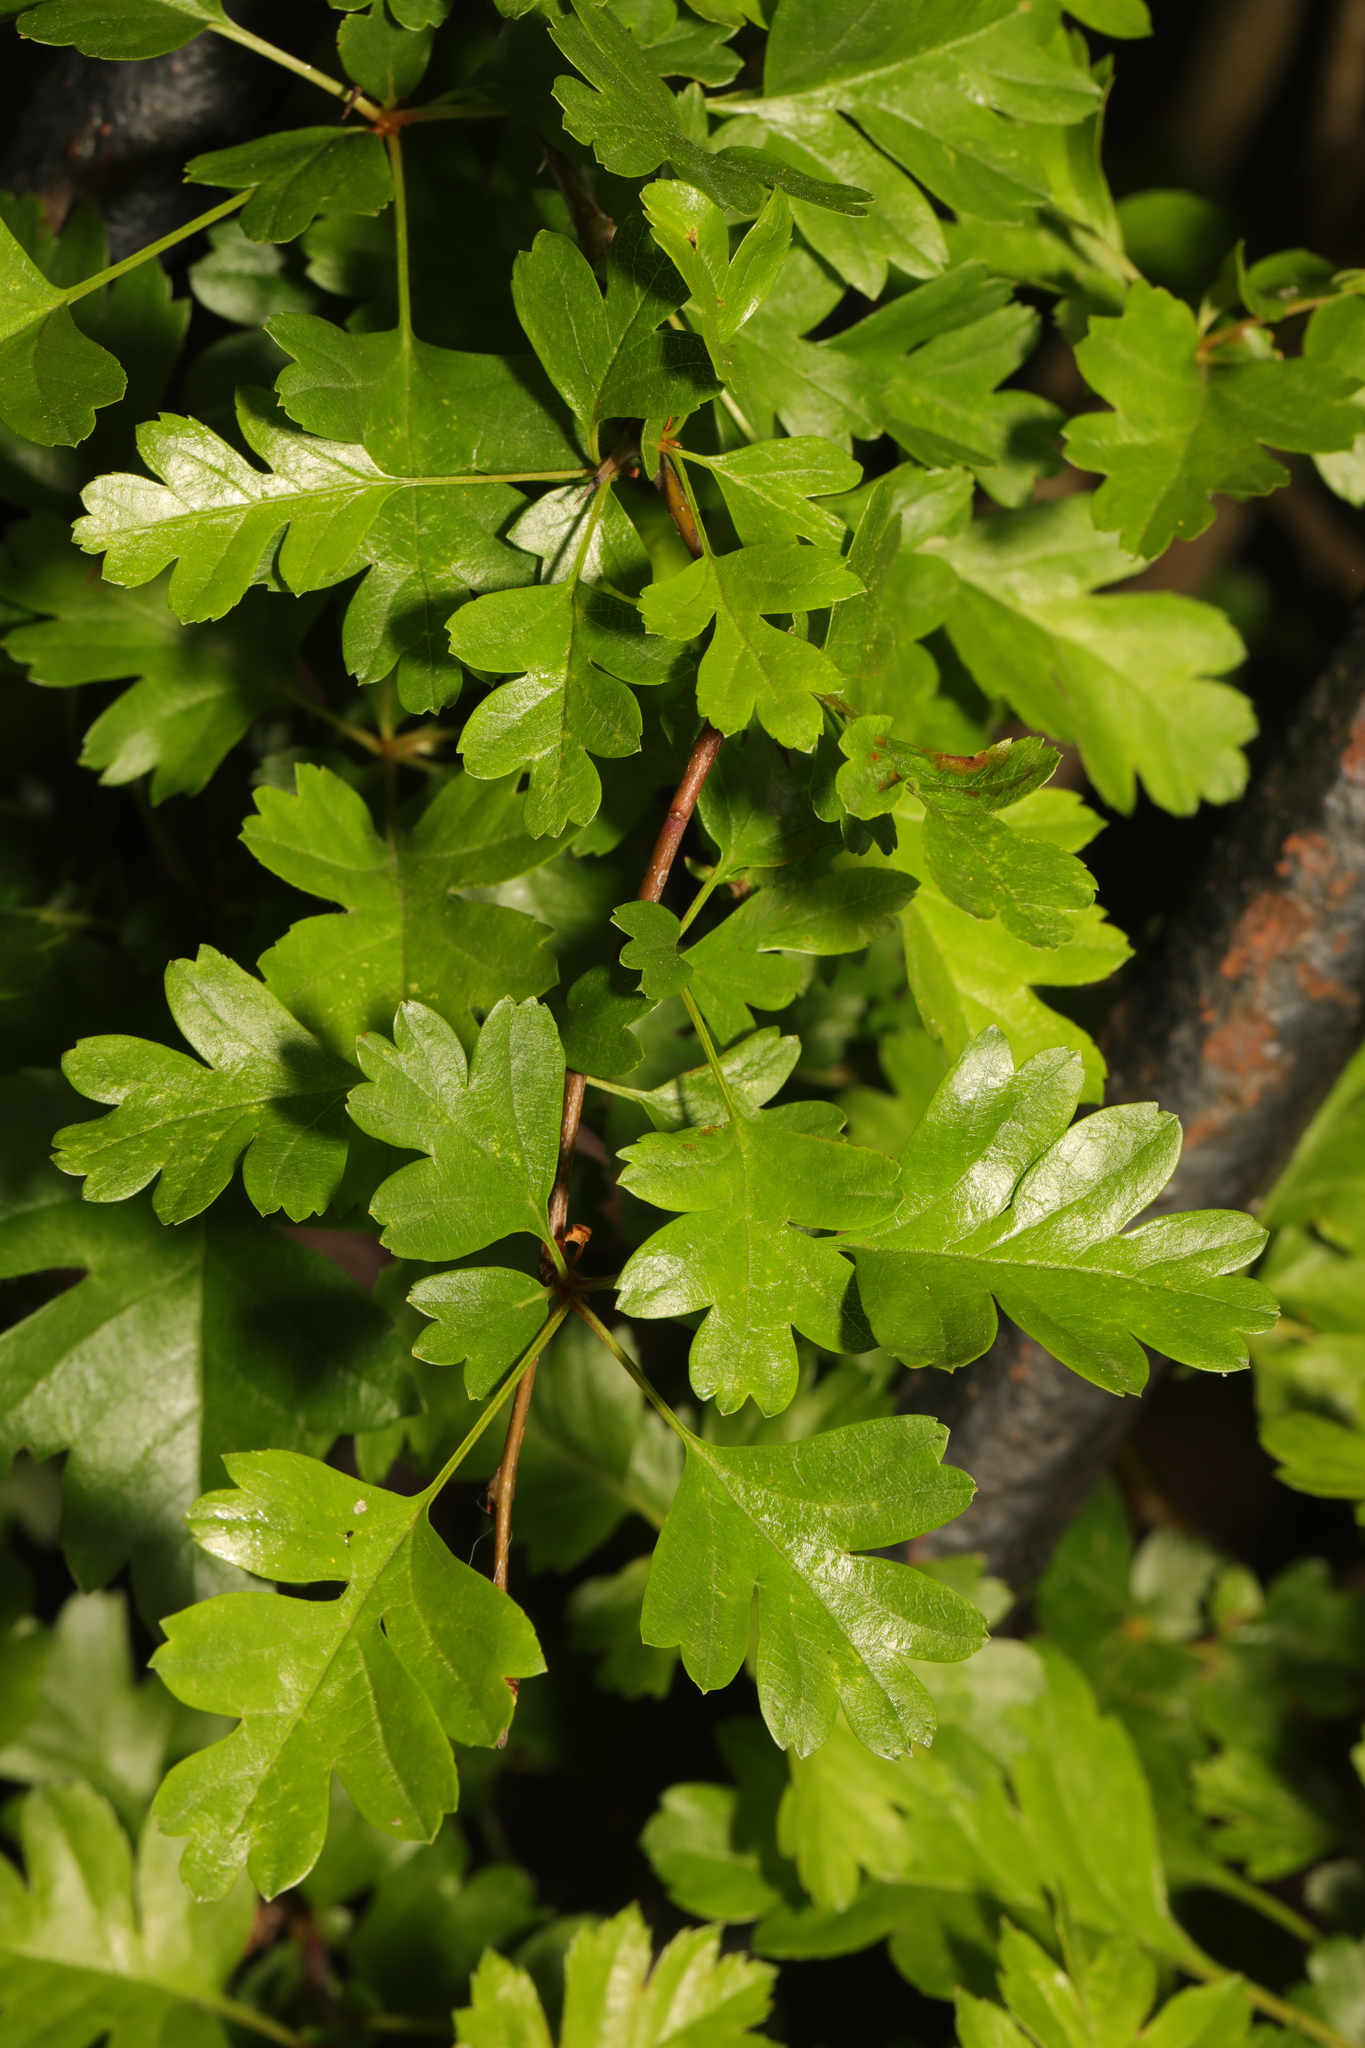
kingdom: Plantae
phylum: Tracheophyta
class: Magnoliopsida
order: Rosales
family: Rosaceae
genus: Crataegus
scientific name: Crataegus monogyna
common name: Hawthorn
